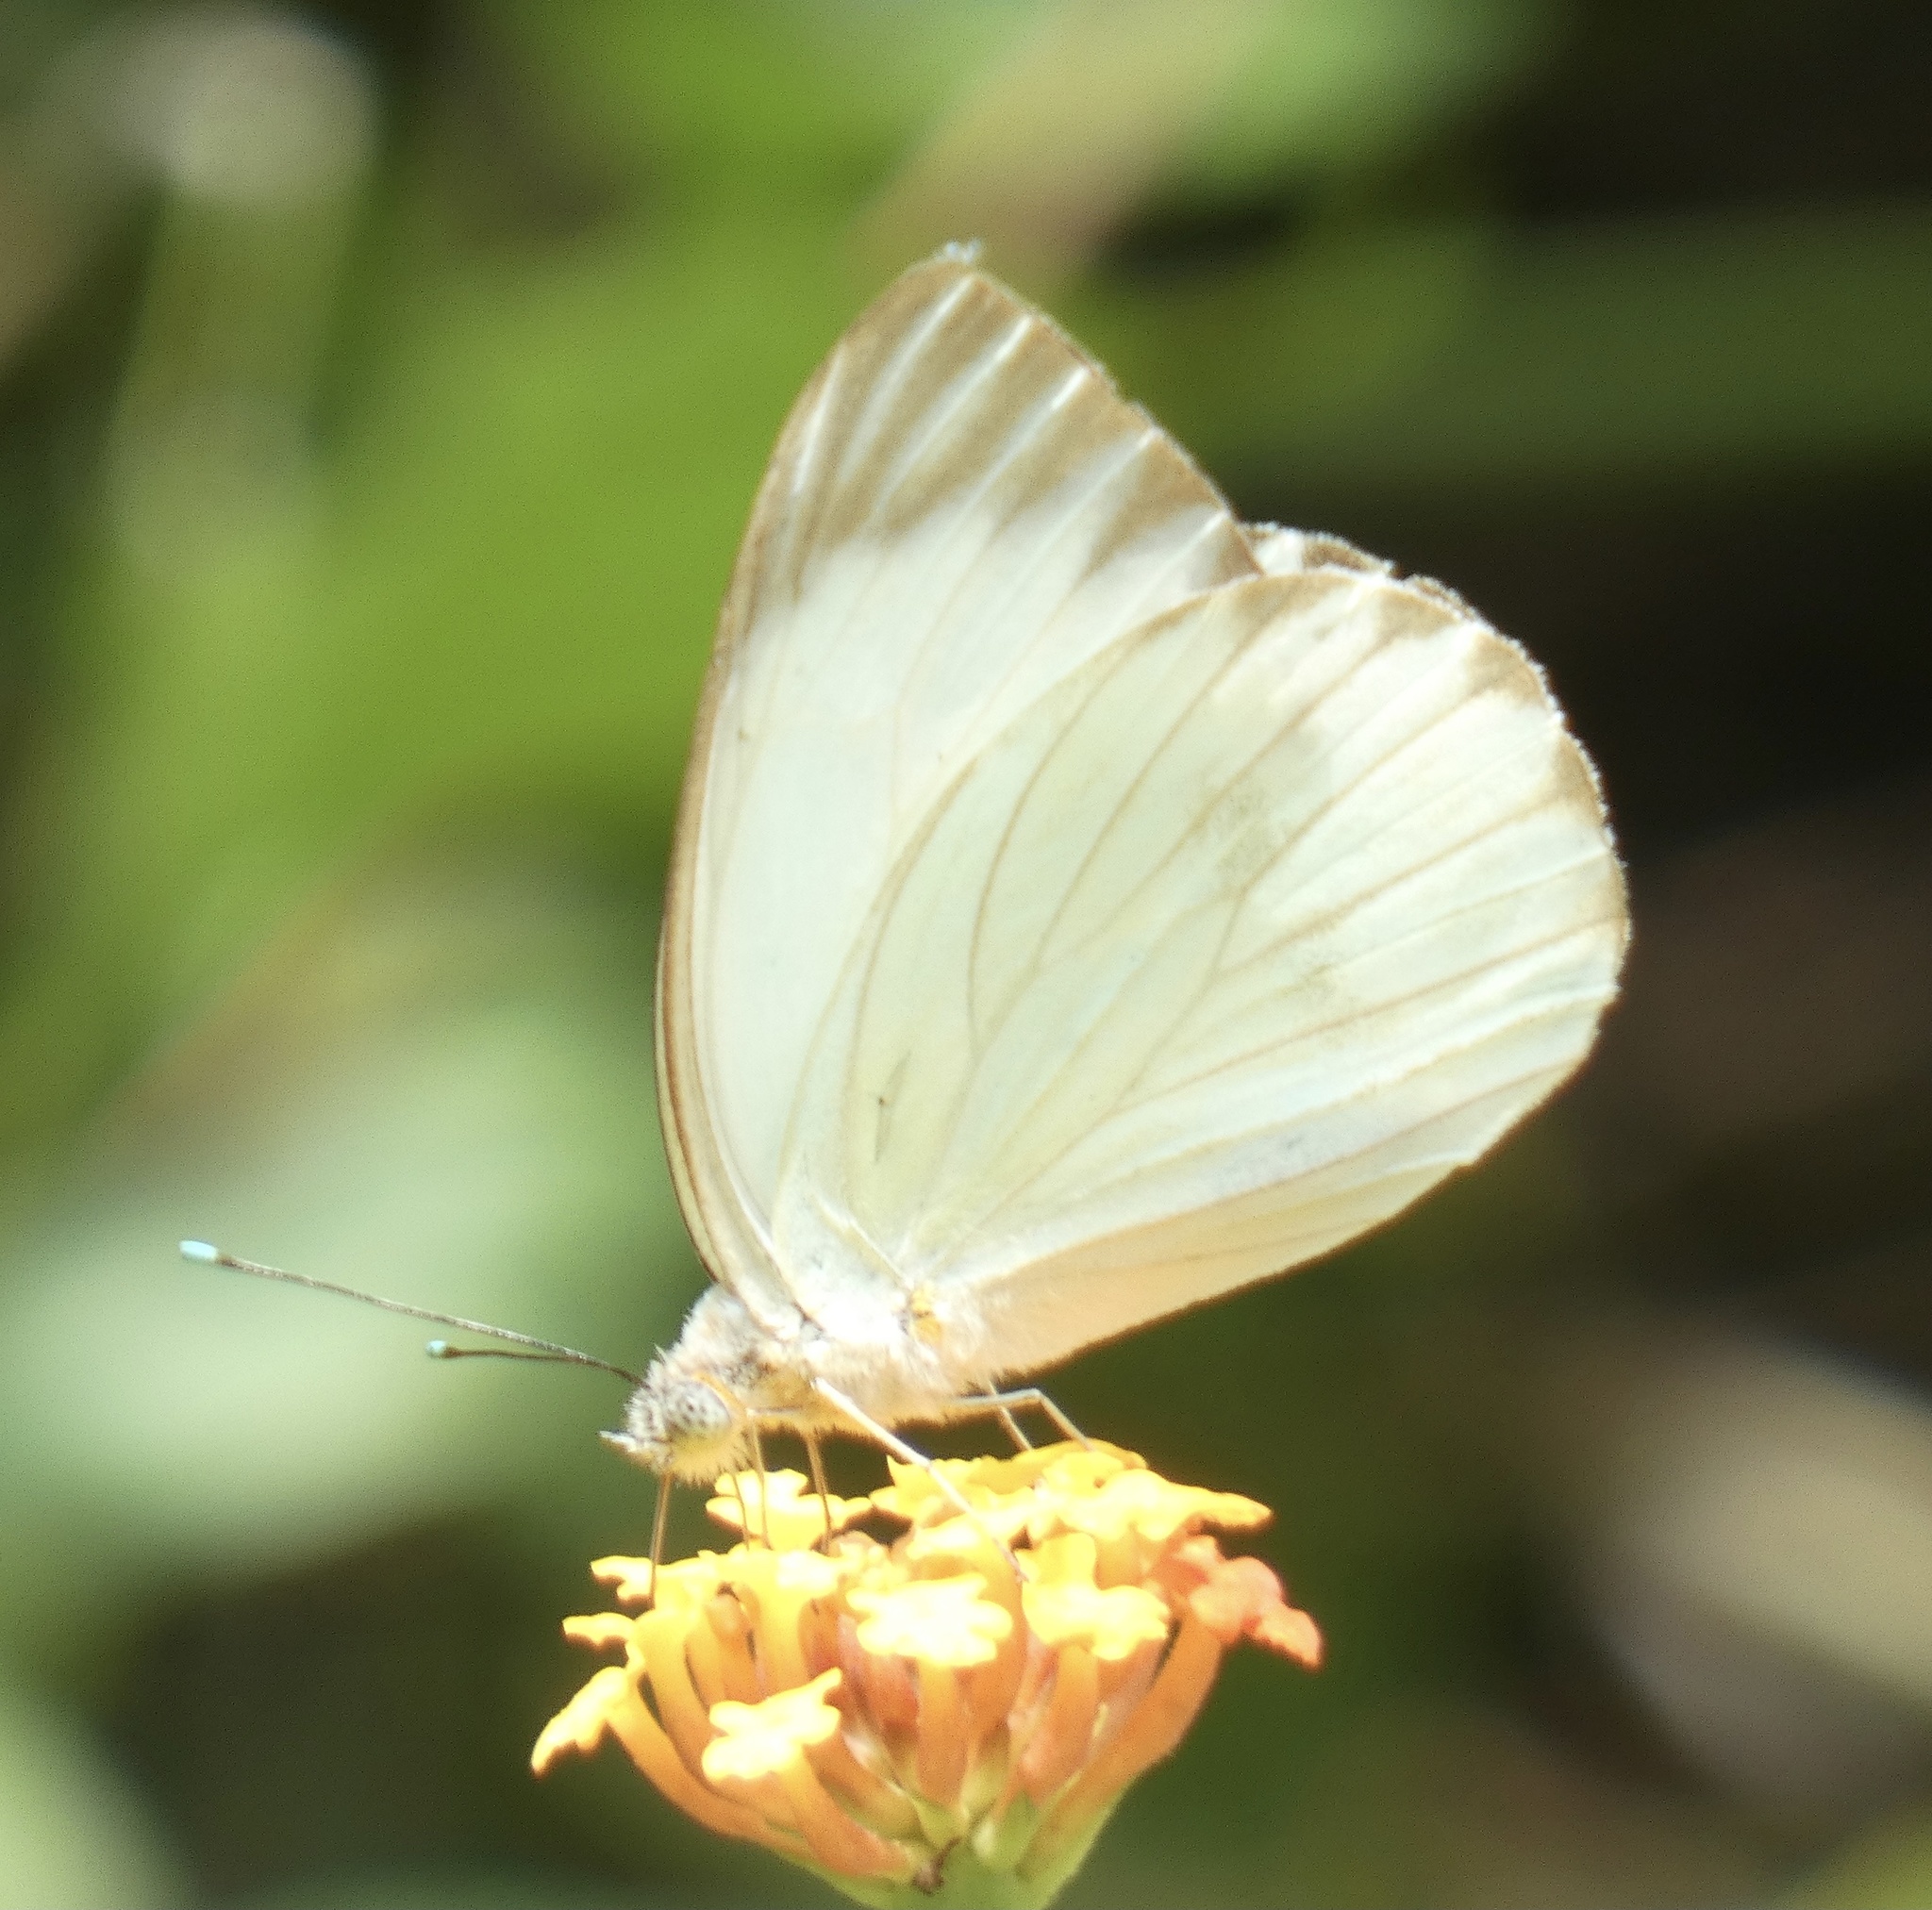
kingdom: Animalia
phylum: Arthropoda
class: Insecta
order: Lepidoptera
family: Pieridae
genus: Ascia
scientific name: Ascia monuste
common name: Great southern white
